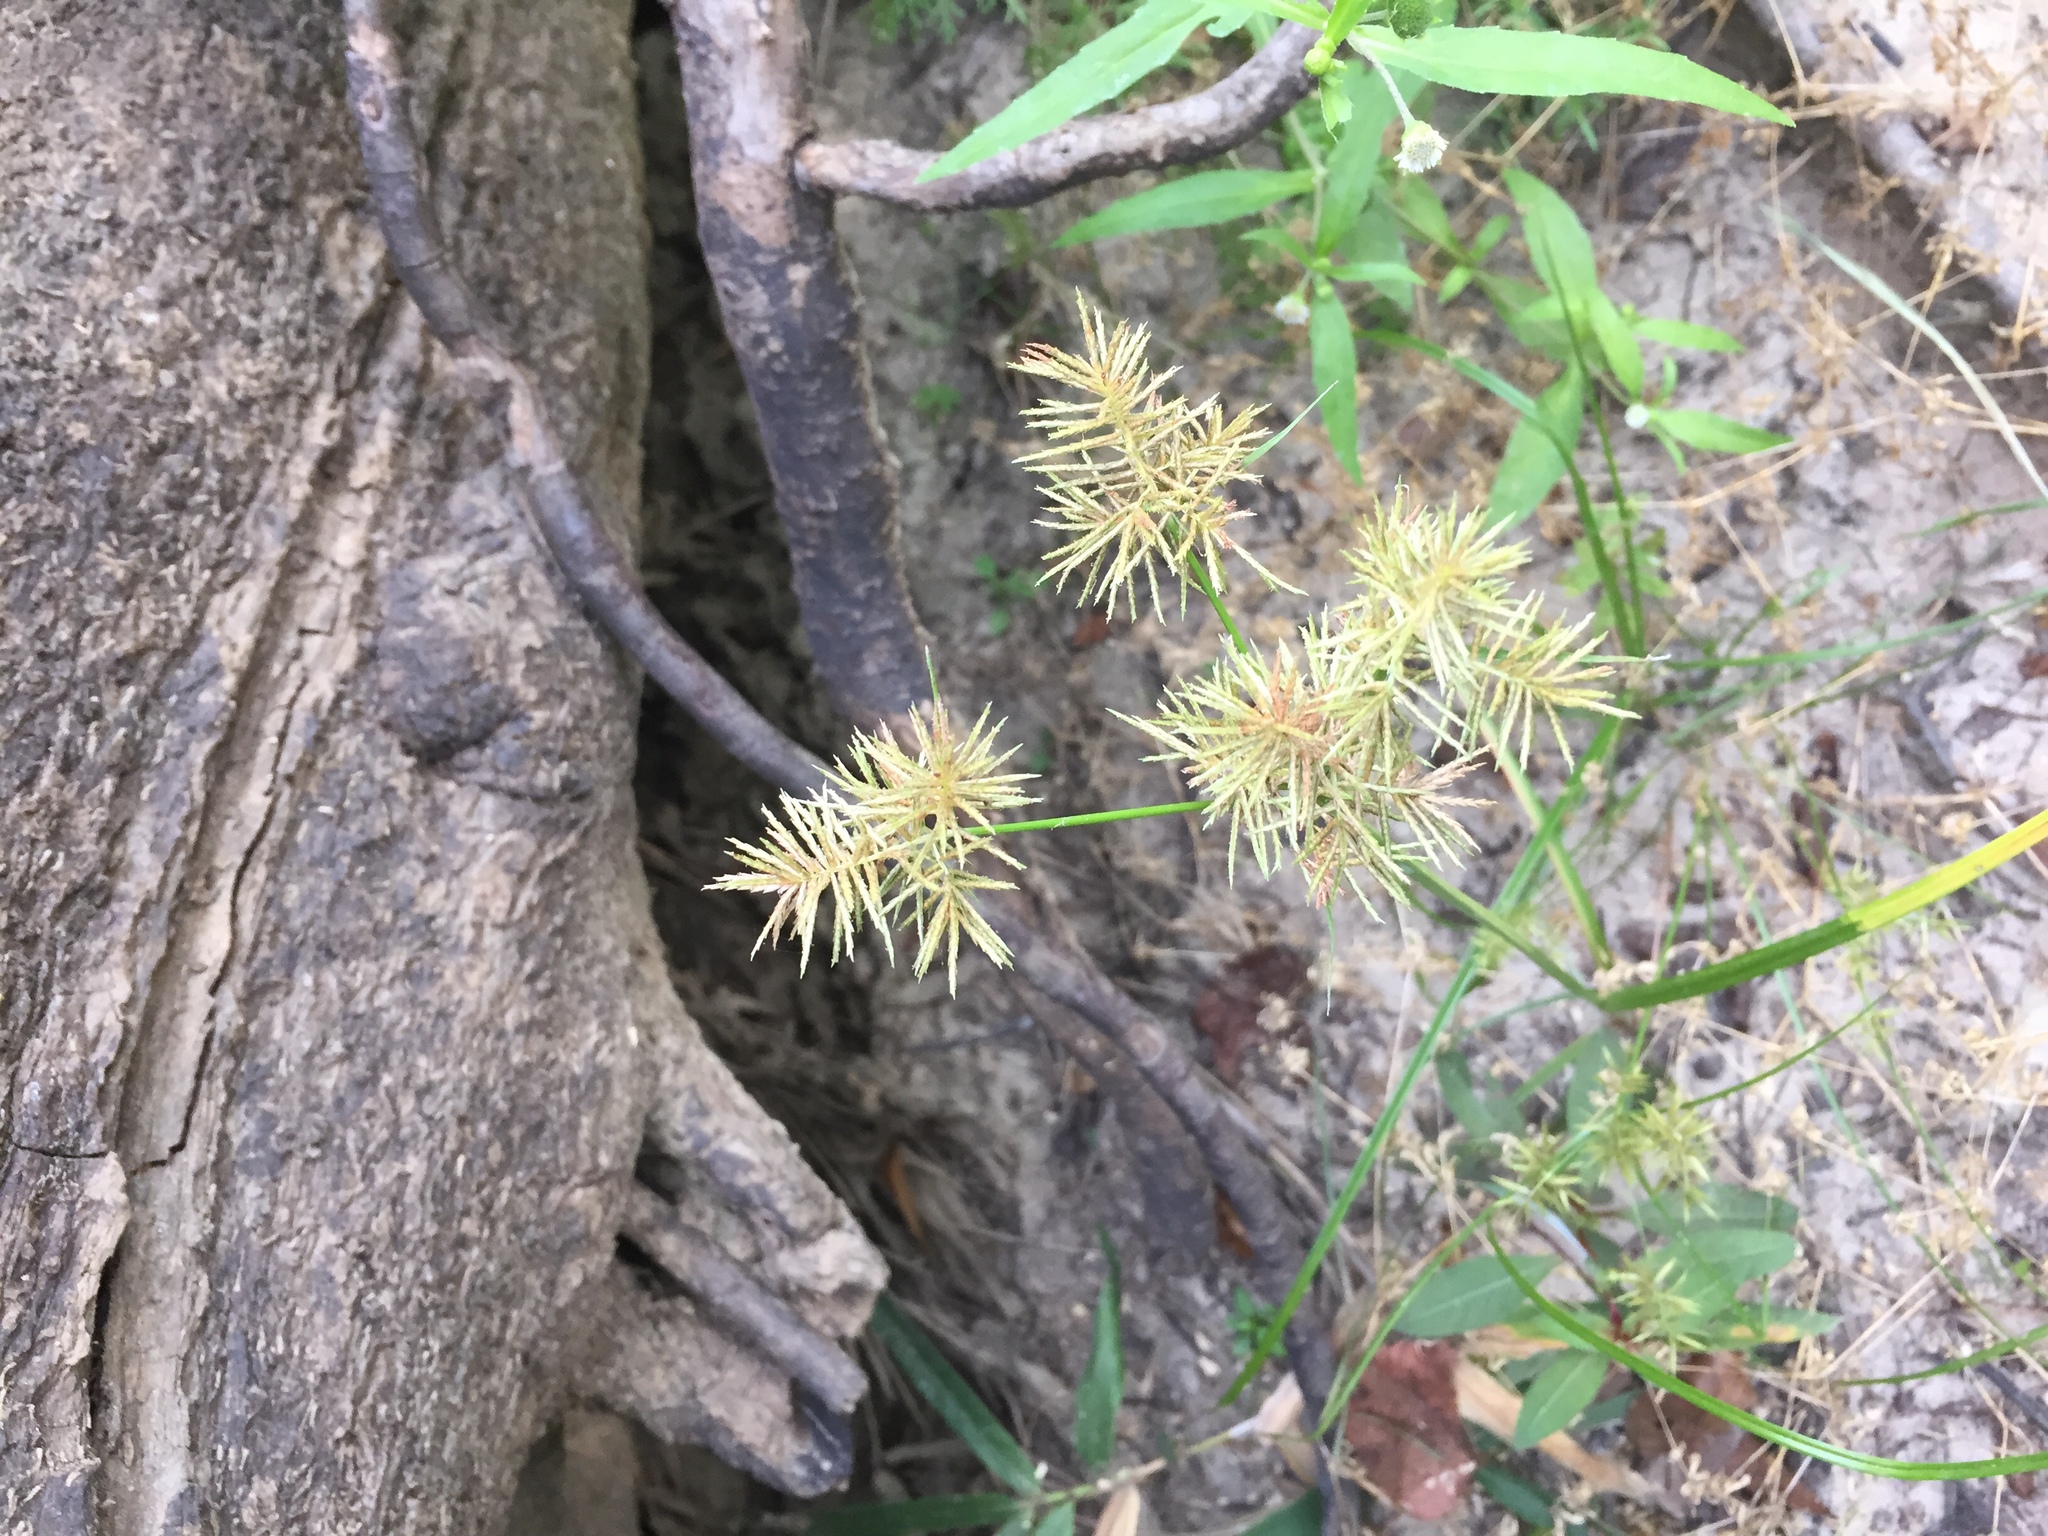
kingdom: Plantae
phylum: Tracheophyta
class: Liliopsida
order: Poales
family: Cyperaceae
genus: Cyperus
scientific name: Cyperus odoratus
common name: Fragrant flatsedge
